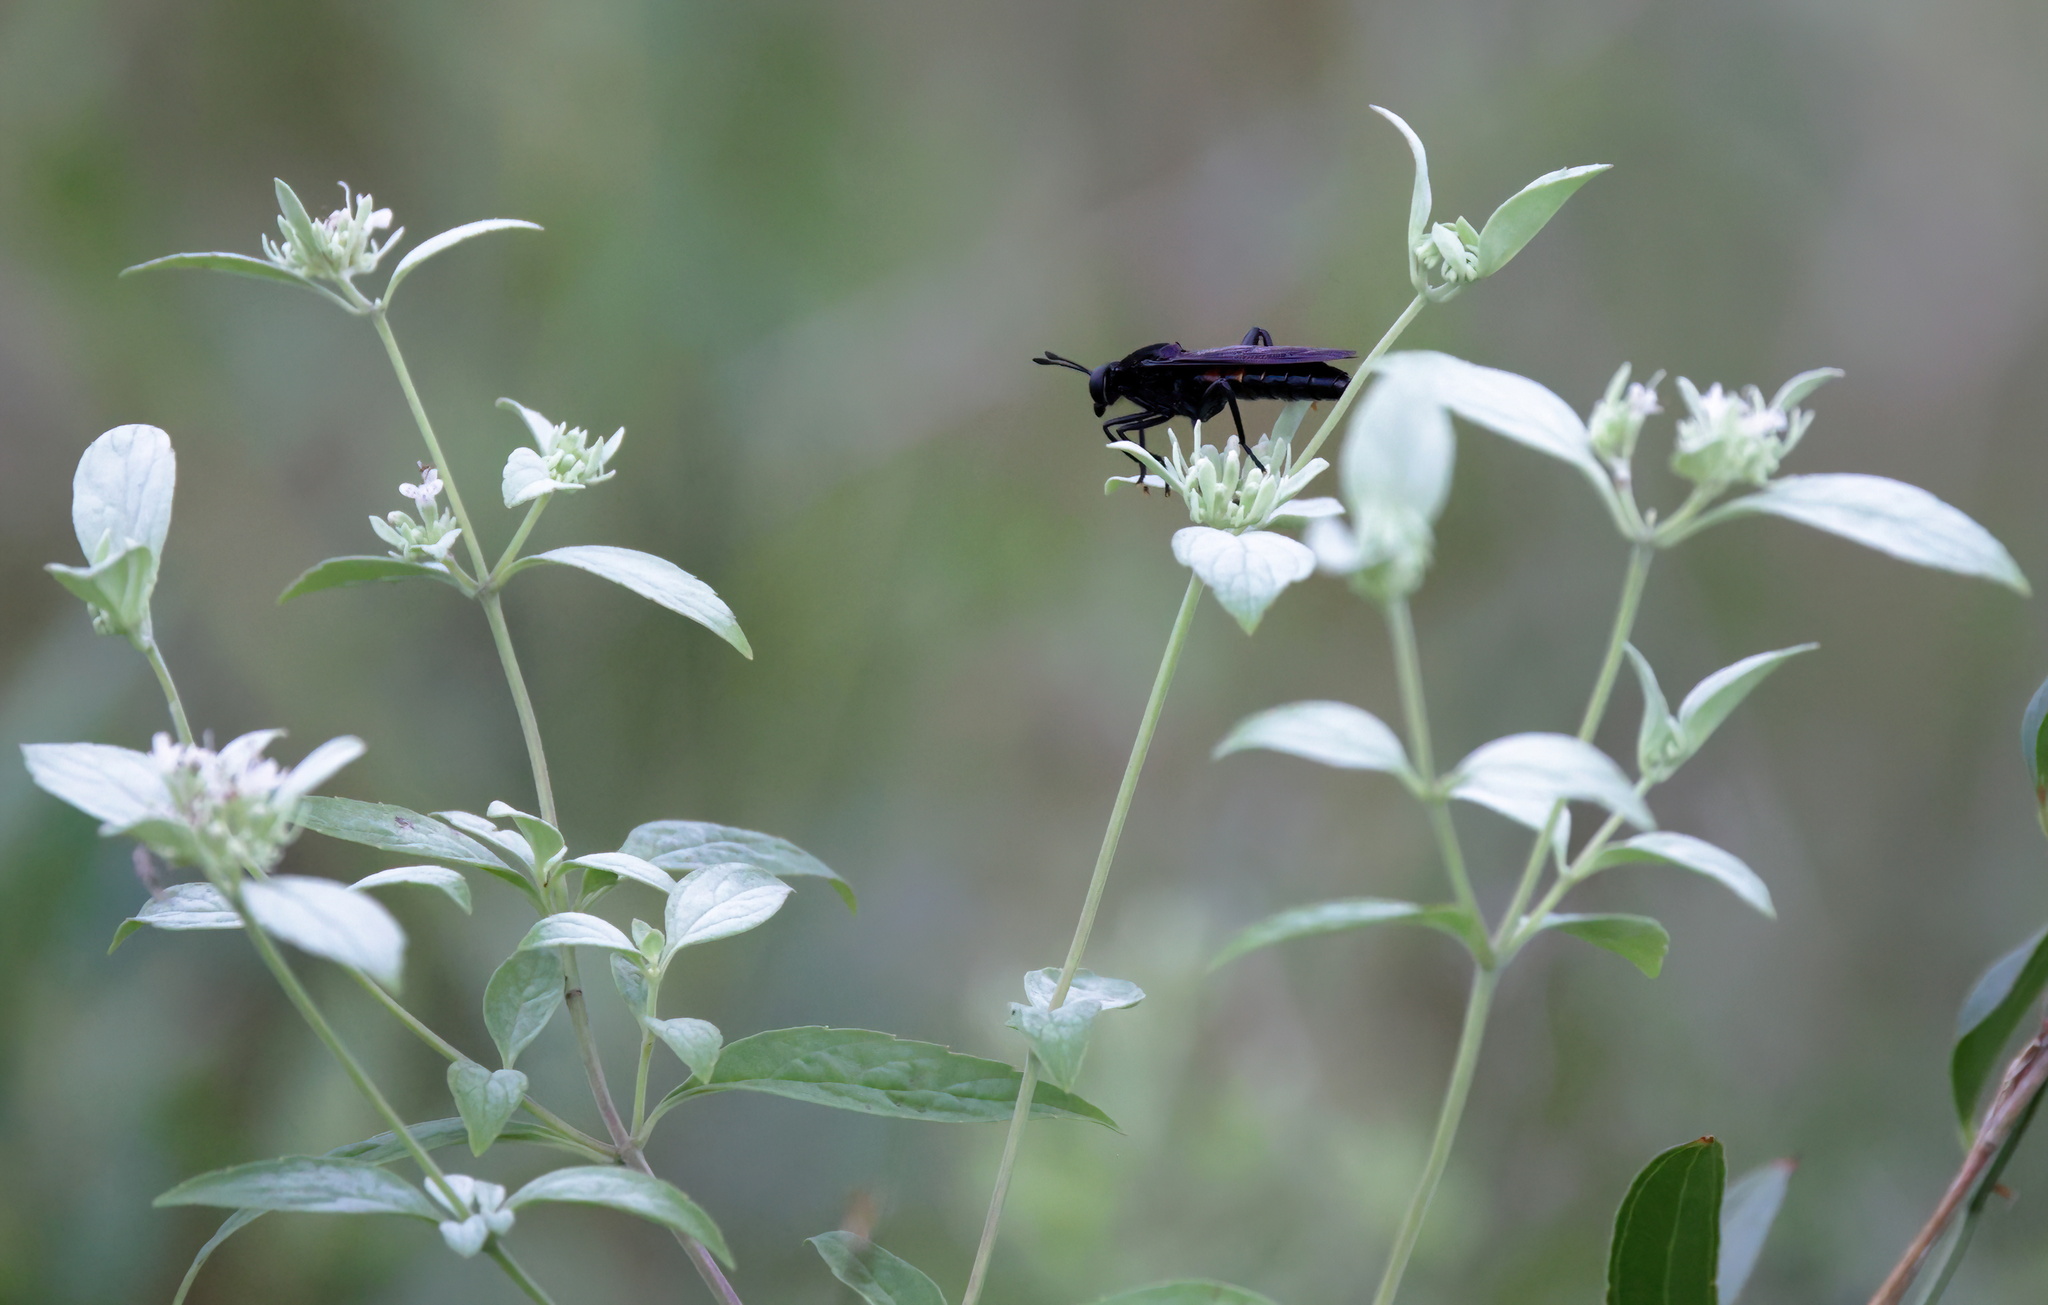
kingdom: Animalia
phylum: Arthropoda
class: Insecta
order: Diptera
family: Mydidae
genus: Mydas
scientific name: Mydas fulvifrons
